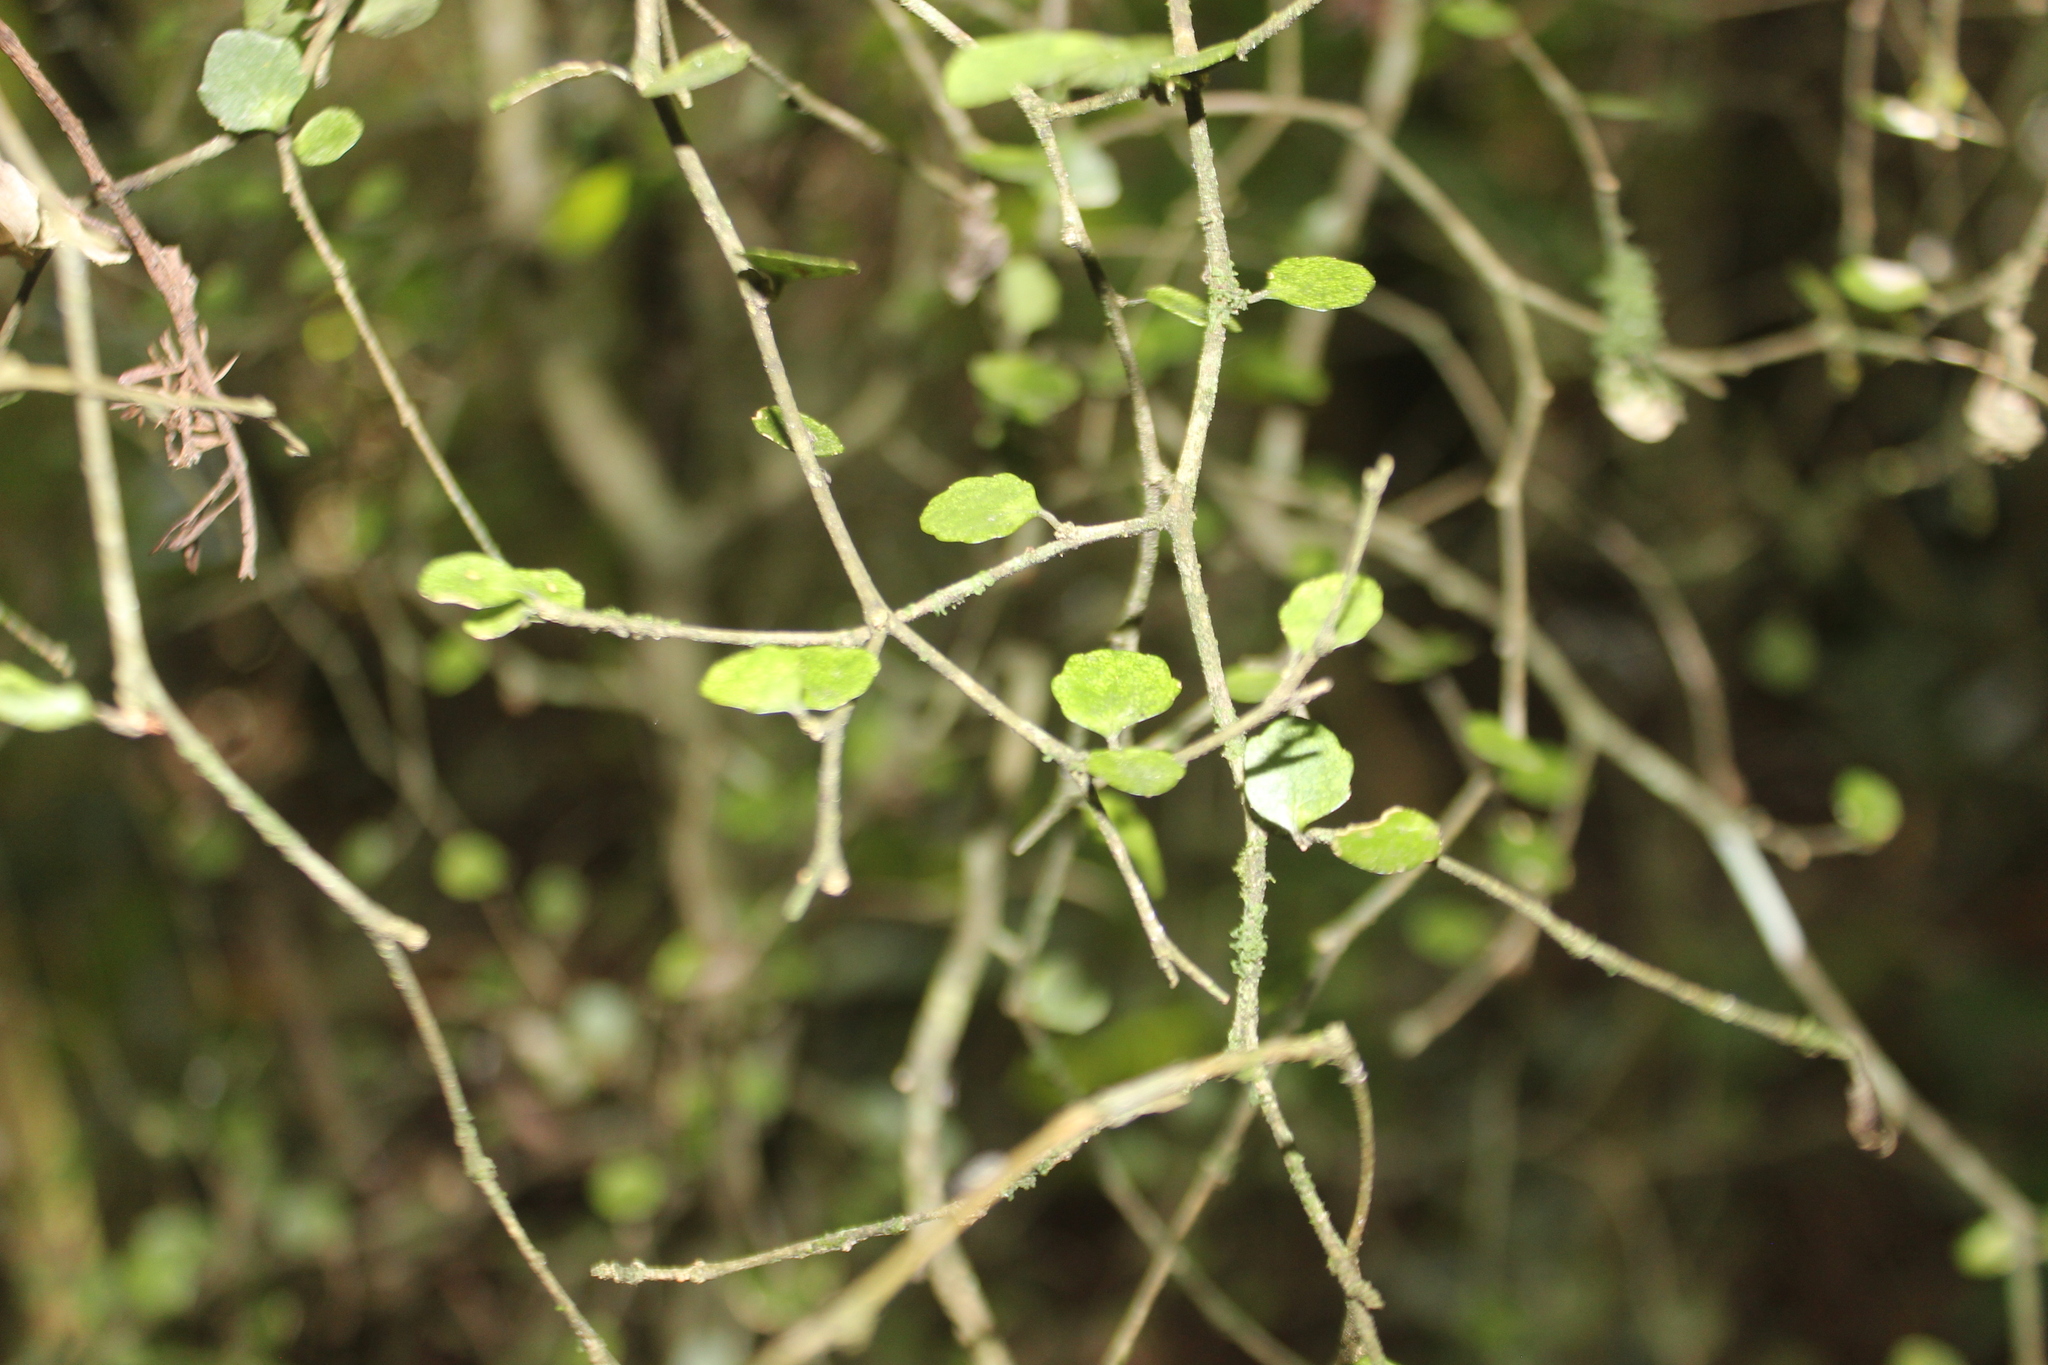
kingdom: Plantae
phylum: Tracheophyta
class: Magnoliopsida
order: Malpighiales
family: Violaceae
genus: Melicytus
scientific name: Melicytus micranthus
